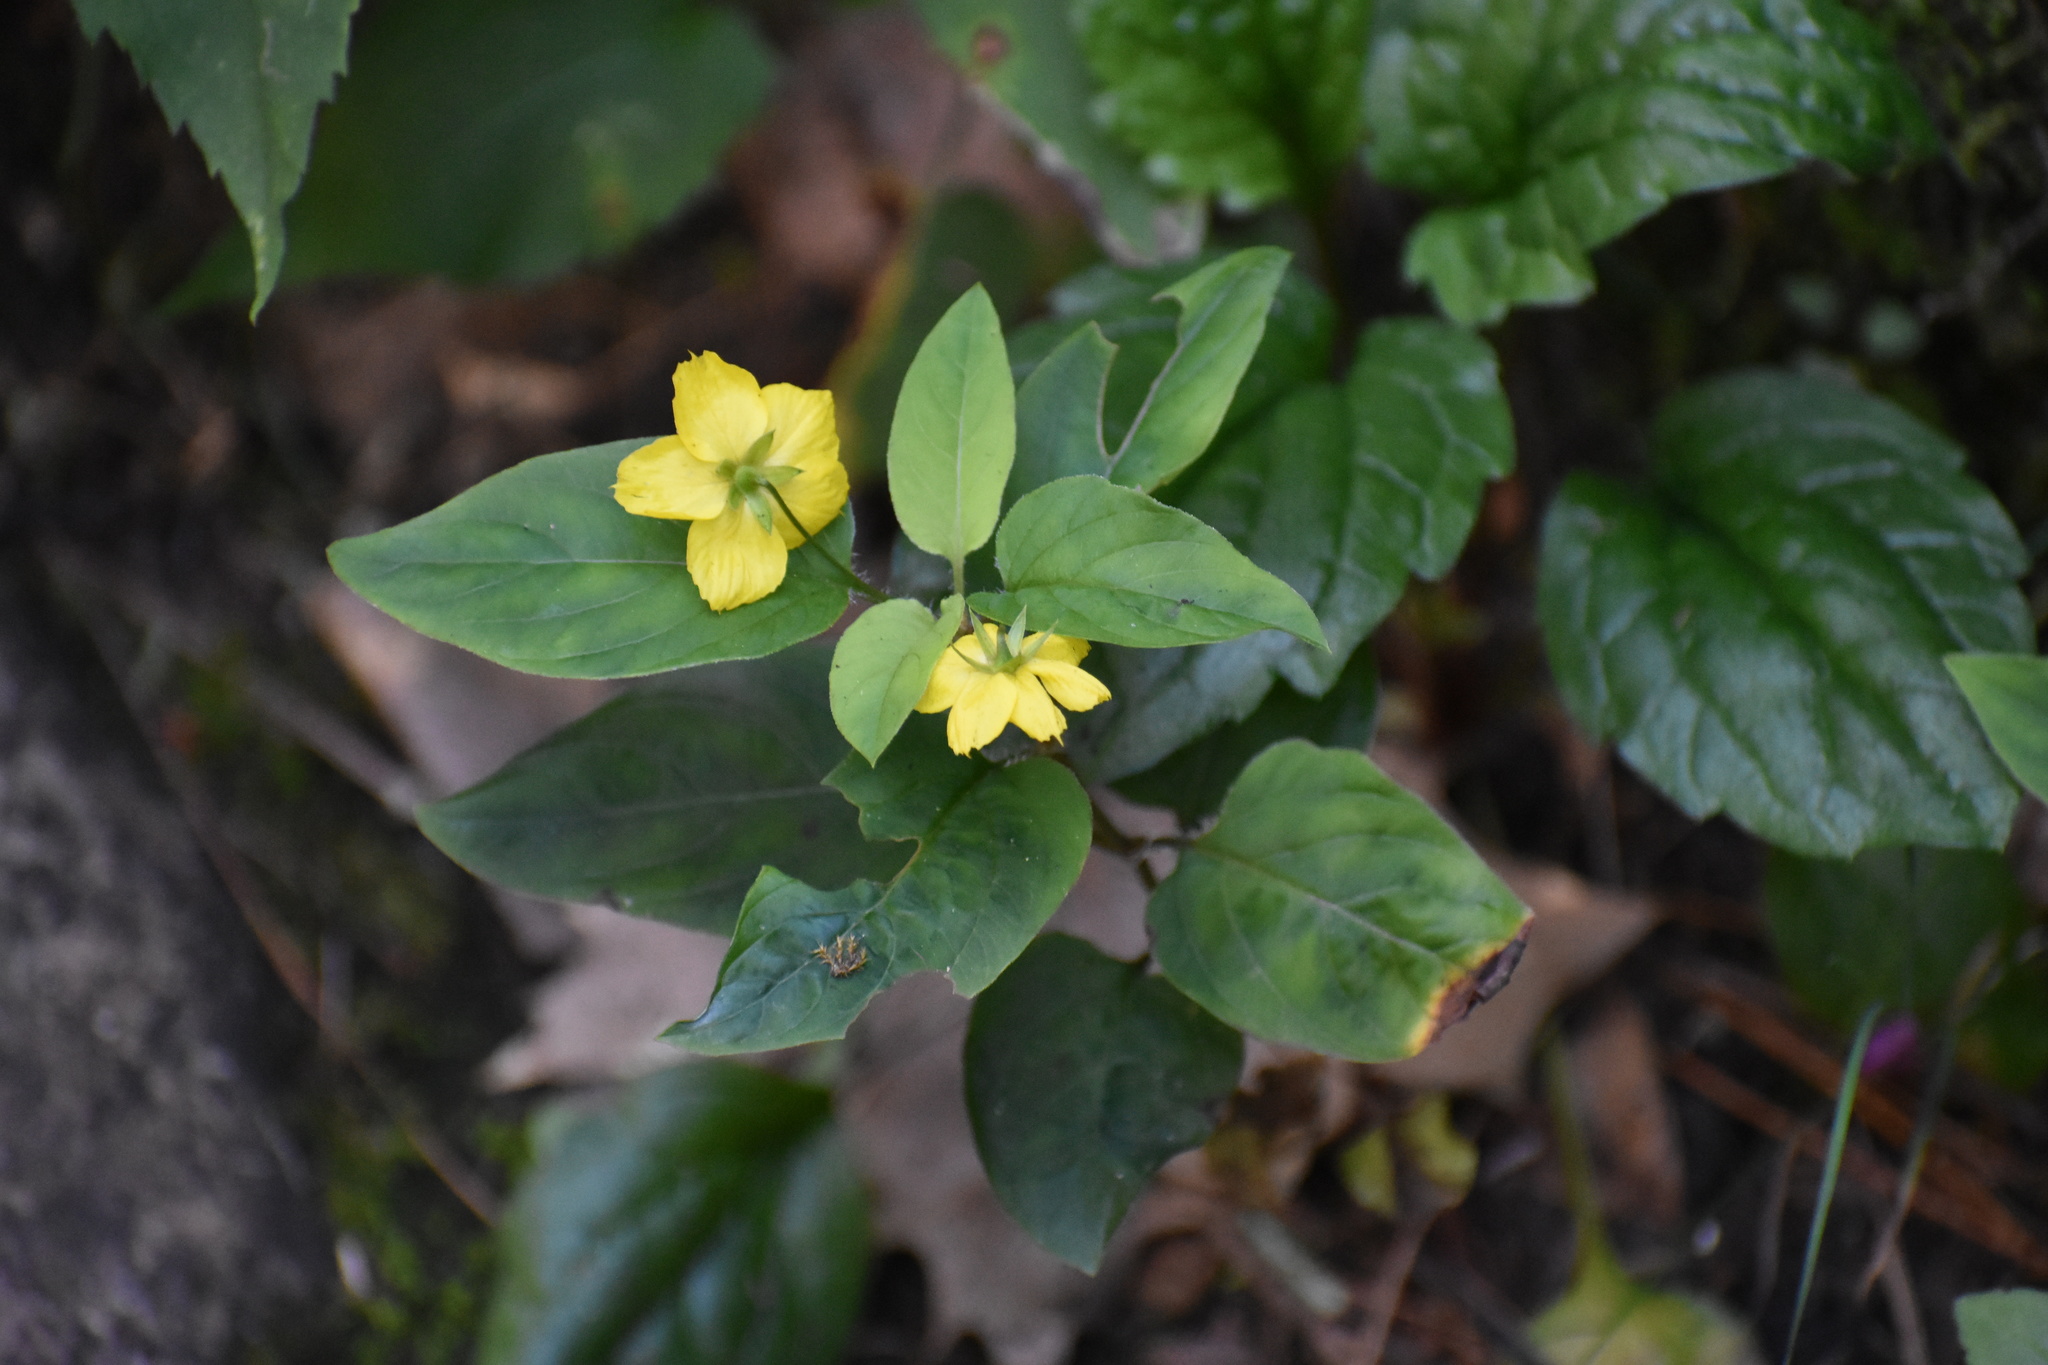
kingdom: Plantae
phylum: Tracheophyta
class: Magnoliopsida
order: Ericales
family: Primulaceae
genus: Lysimachia
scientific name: Lysimachia ciliata
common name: Fringed loosestrife
